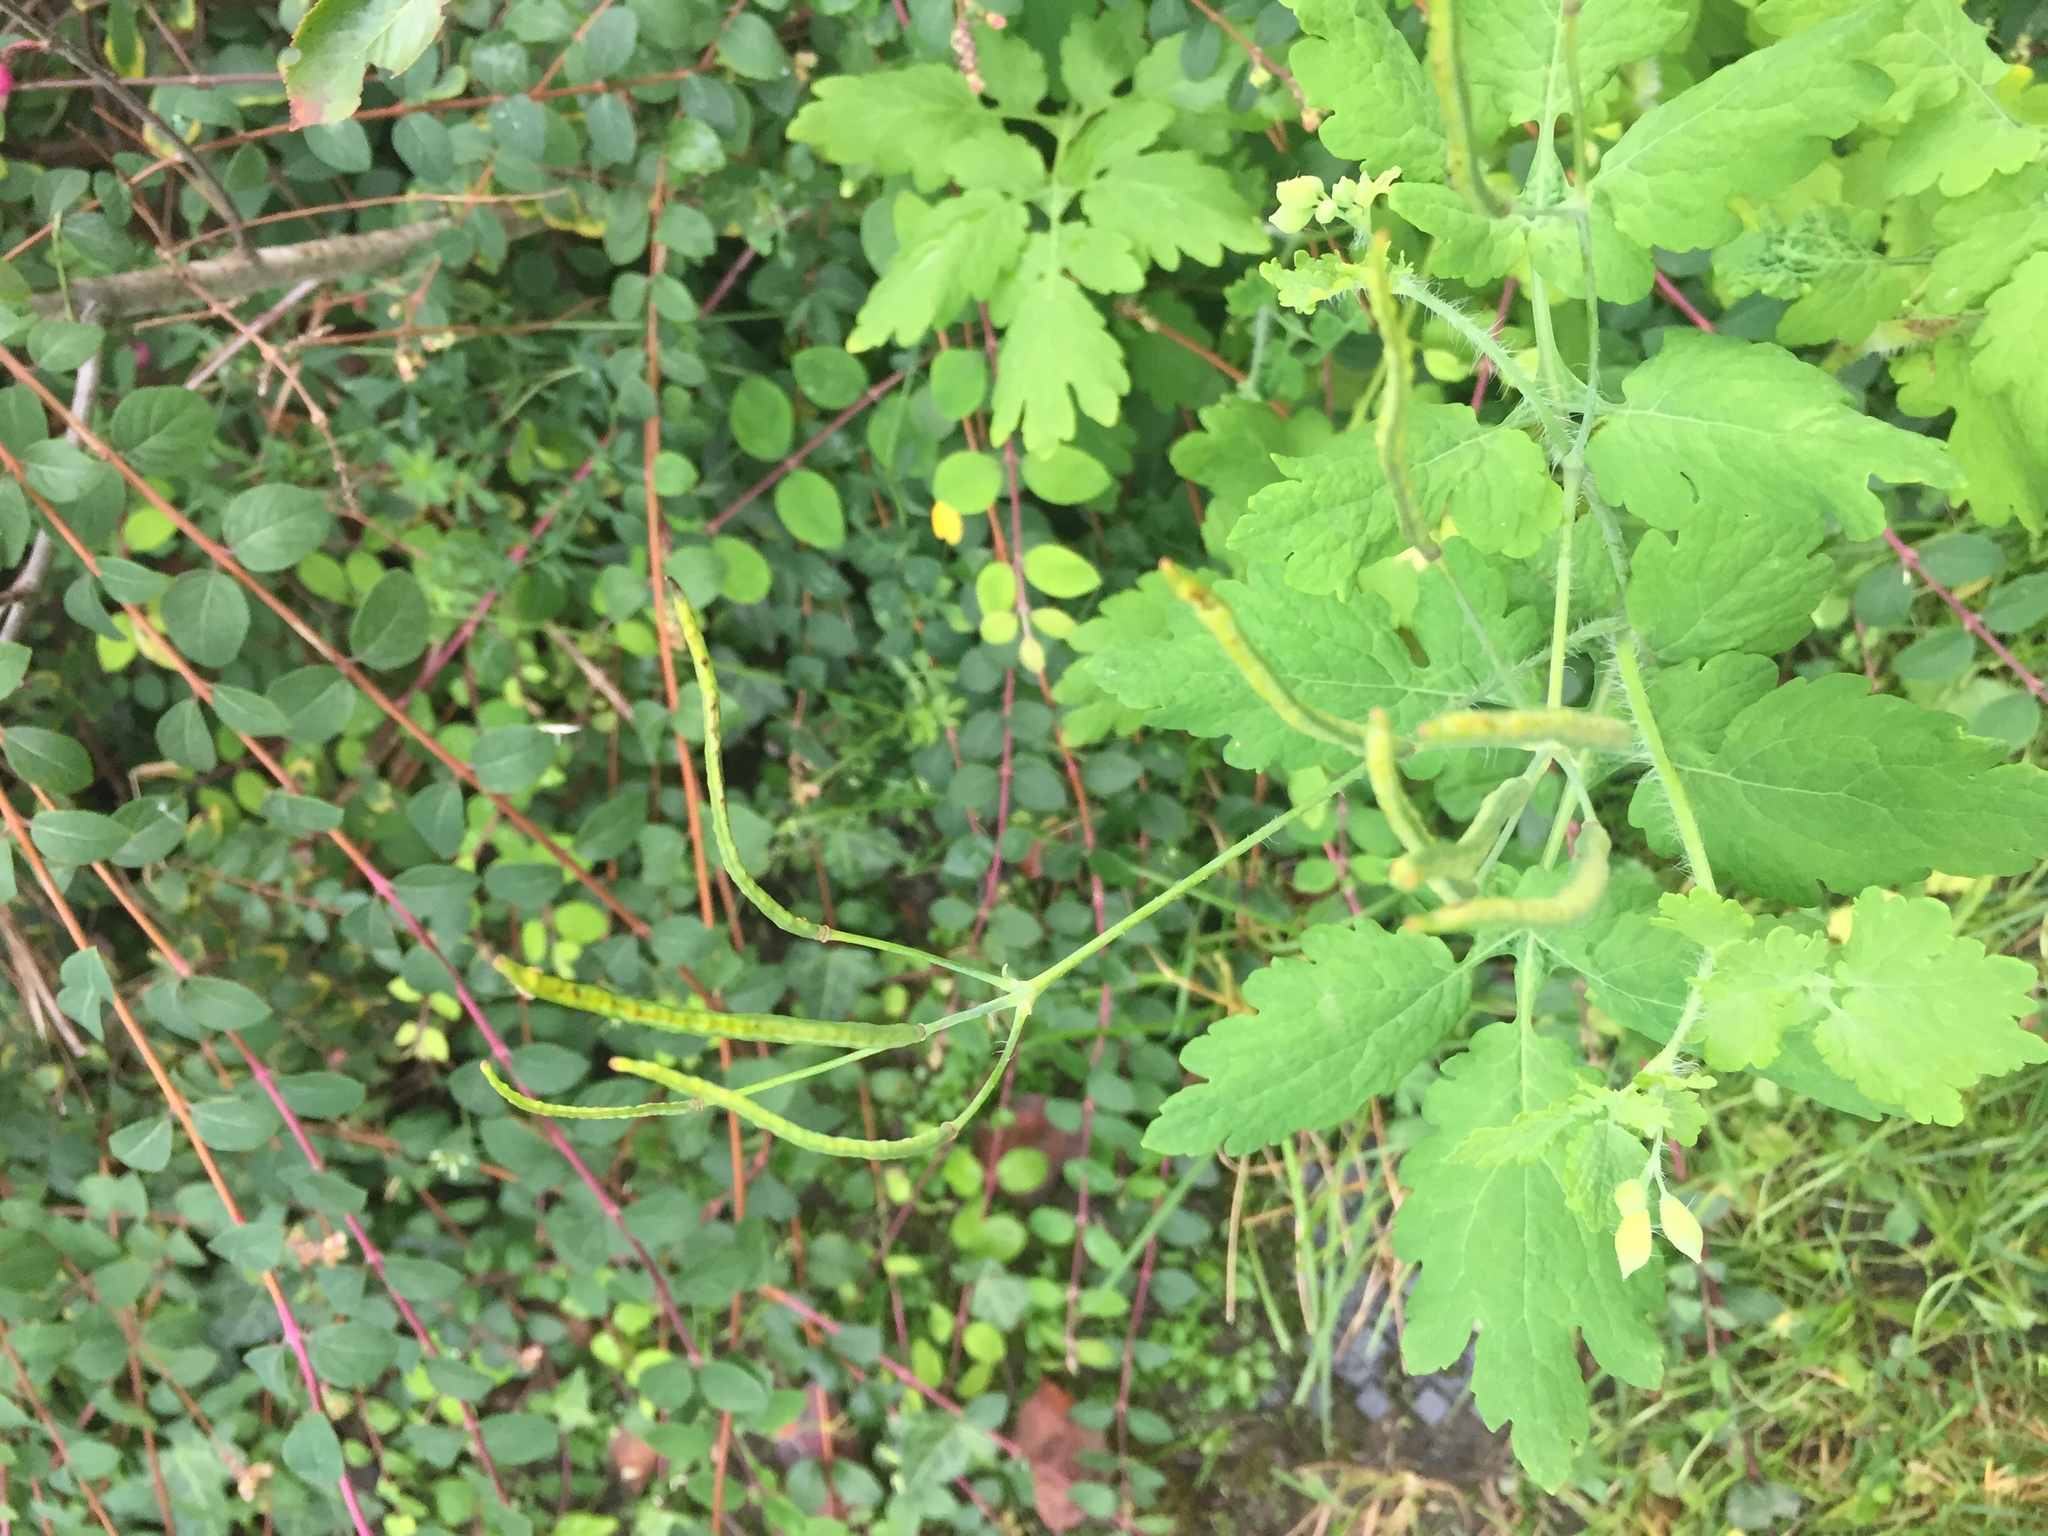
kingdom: Plantae
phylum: Tracheophyta
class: Magnoliopsida
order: Ranunculales
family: Papaveraceae
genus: Chelidonium
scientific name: Chelidonium majus
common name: Greater celandine
